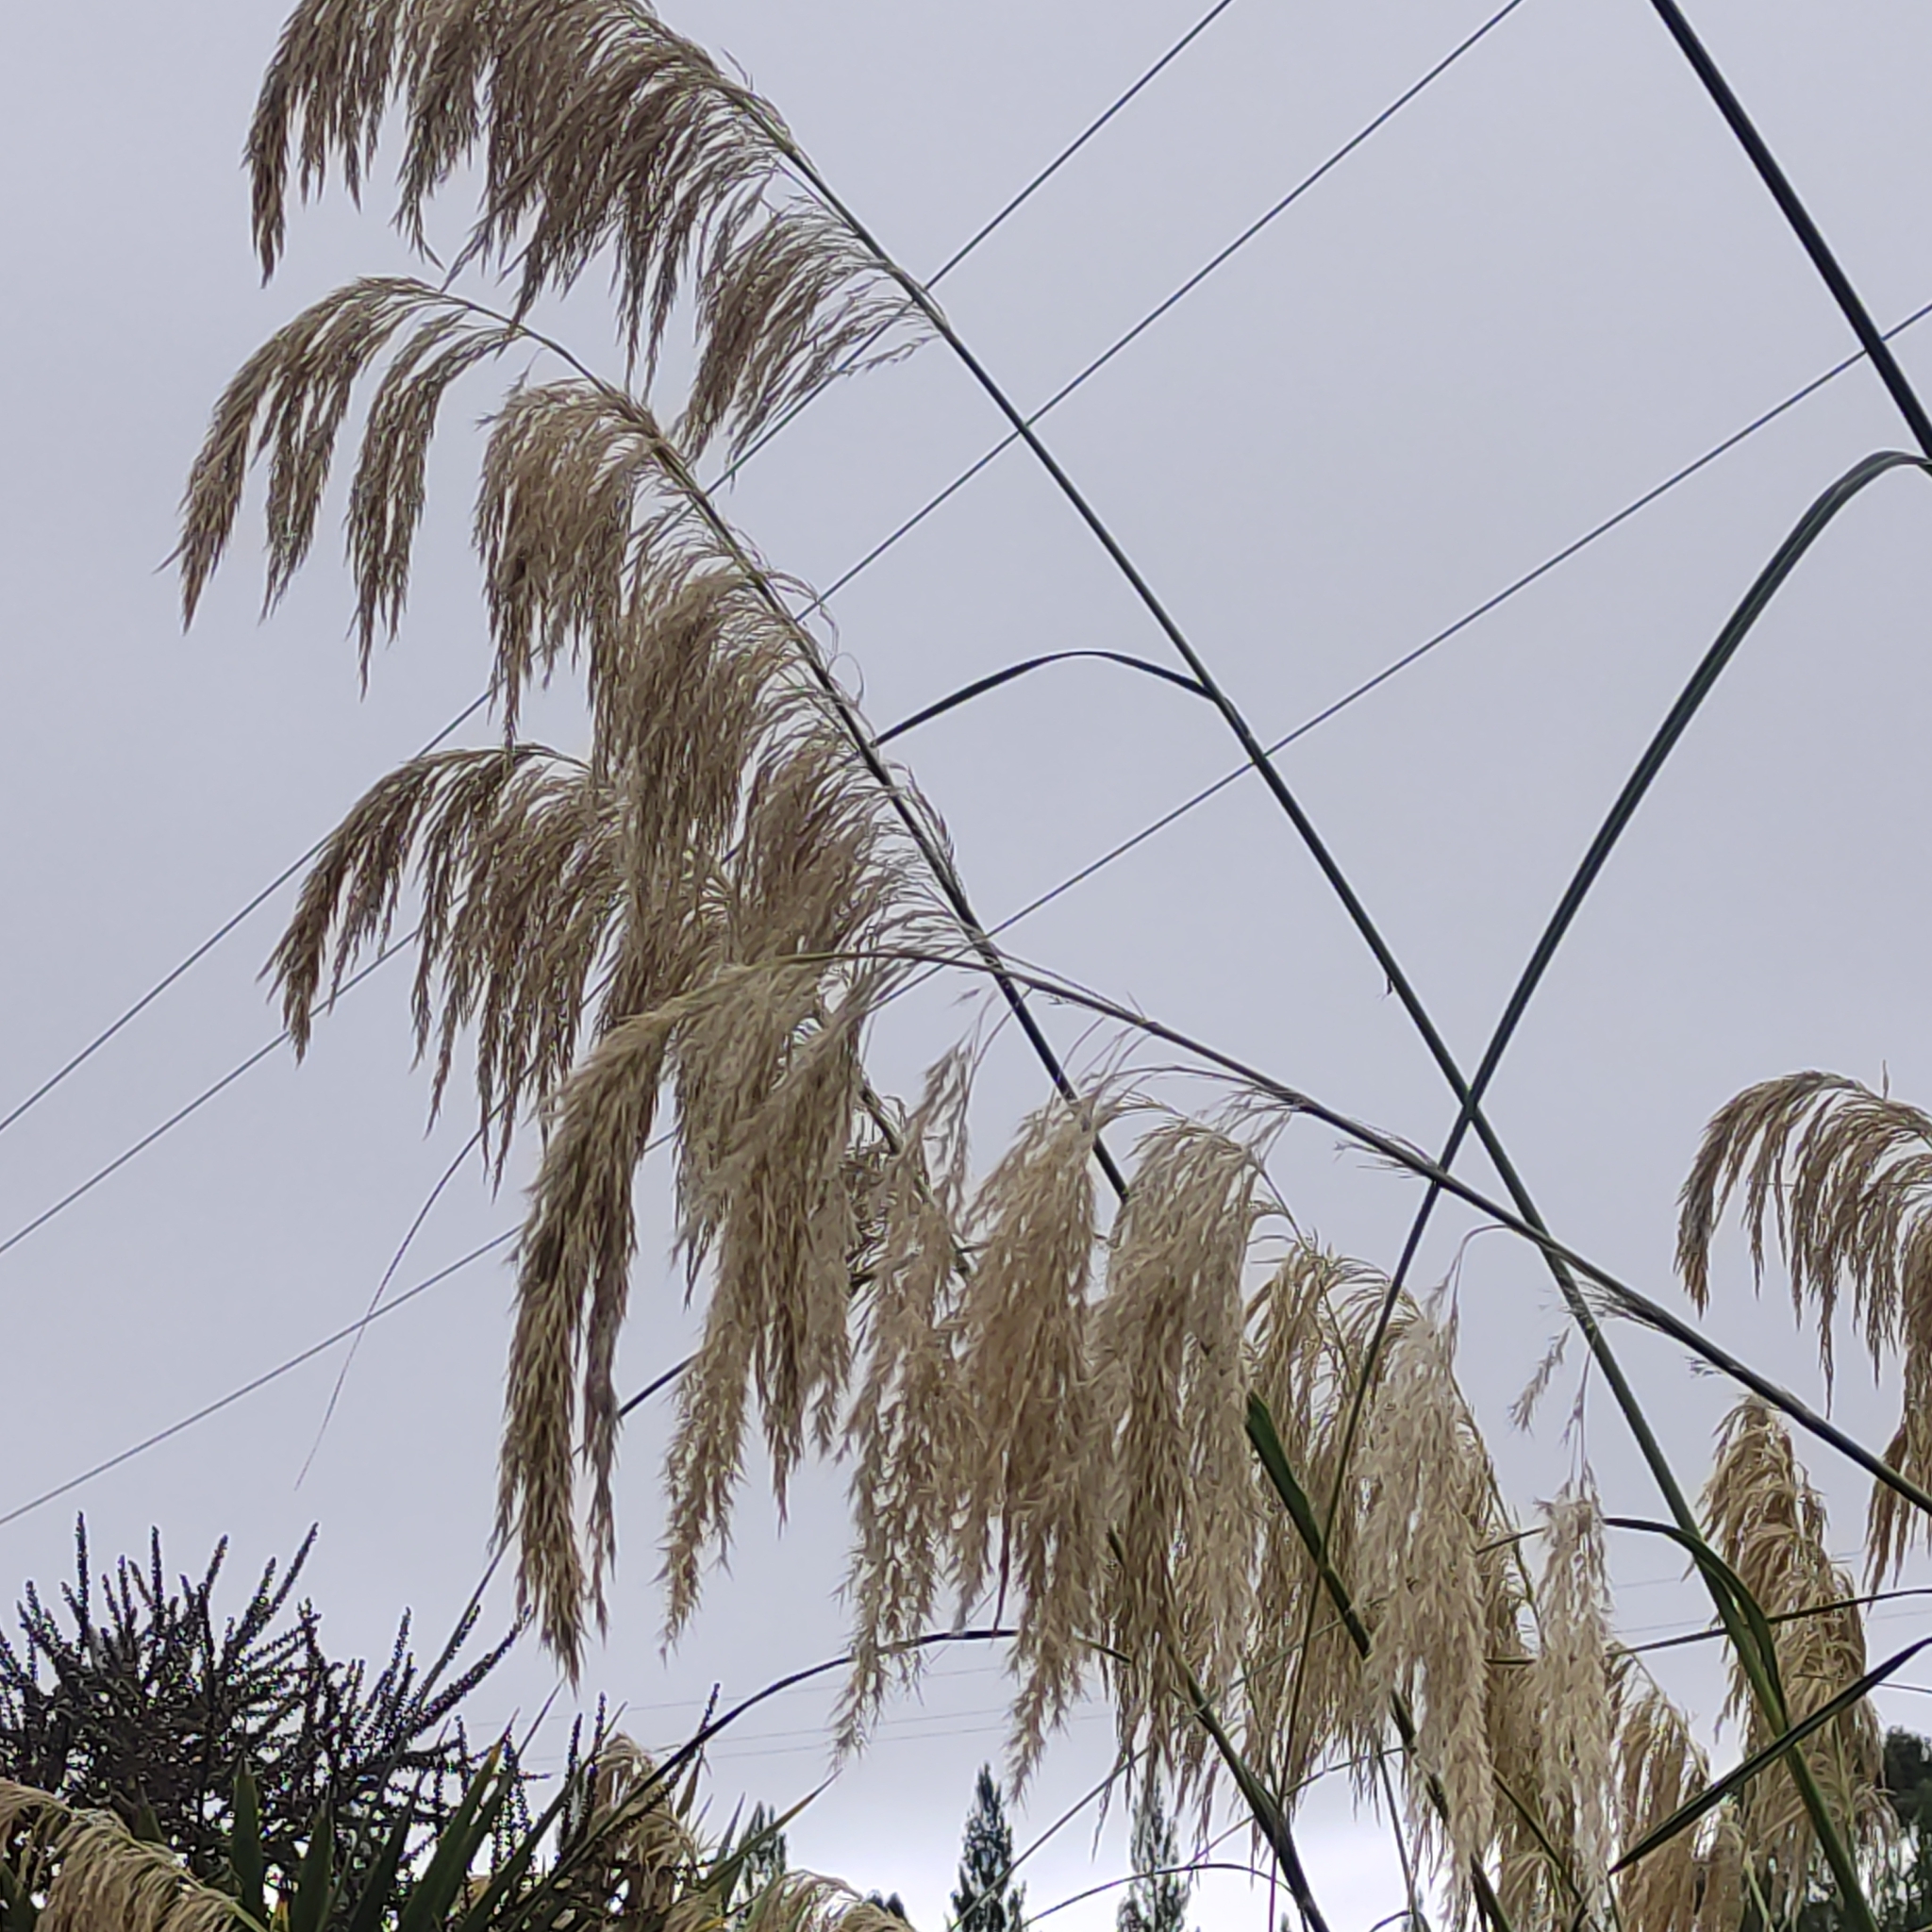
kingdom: Plantae
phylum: Tracheophyta
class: Liliopsida
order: Poales
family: Poaceae
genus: Austroderia
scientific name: Austroderia richardii
